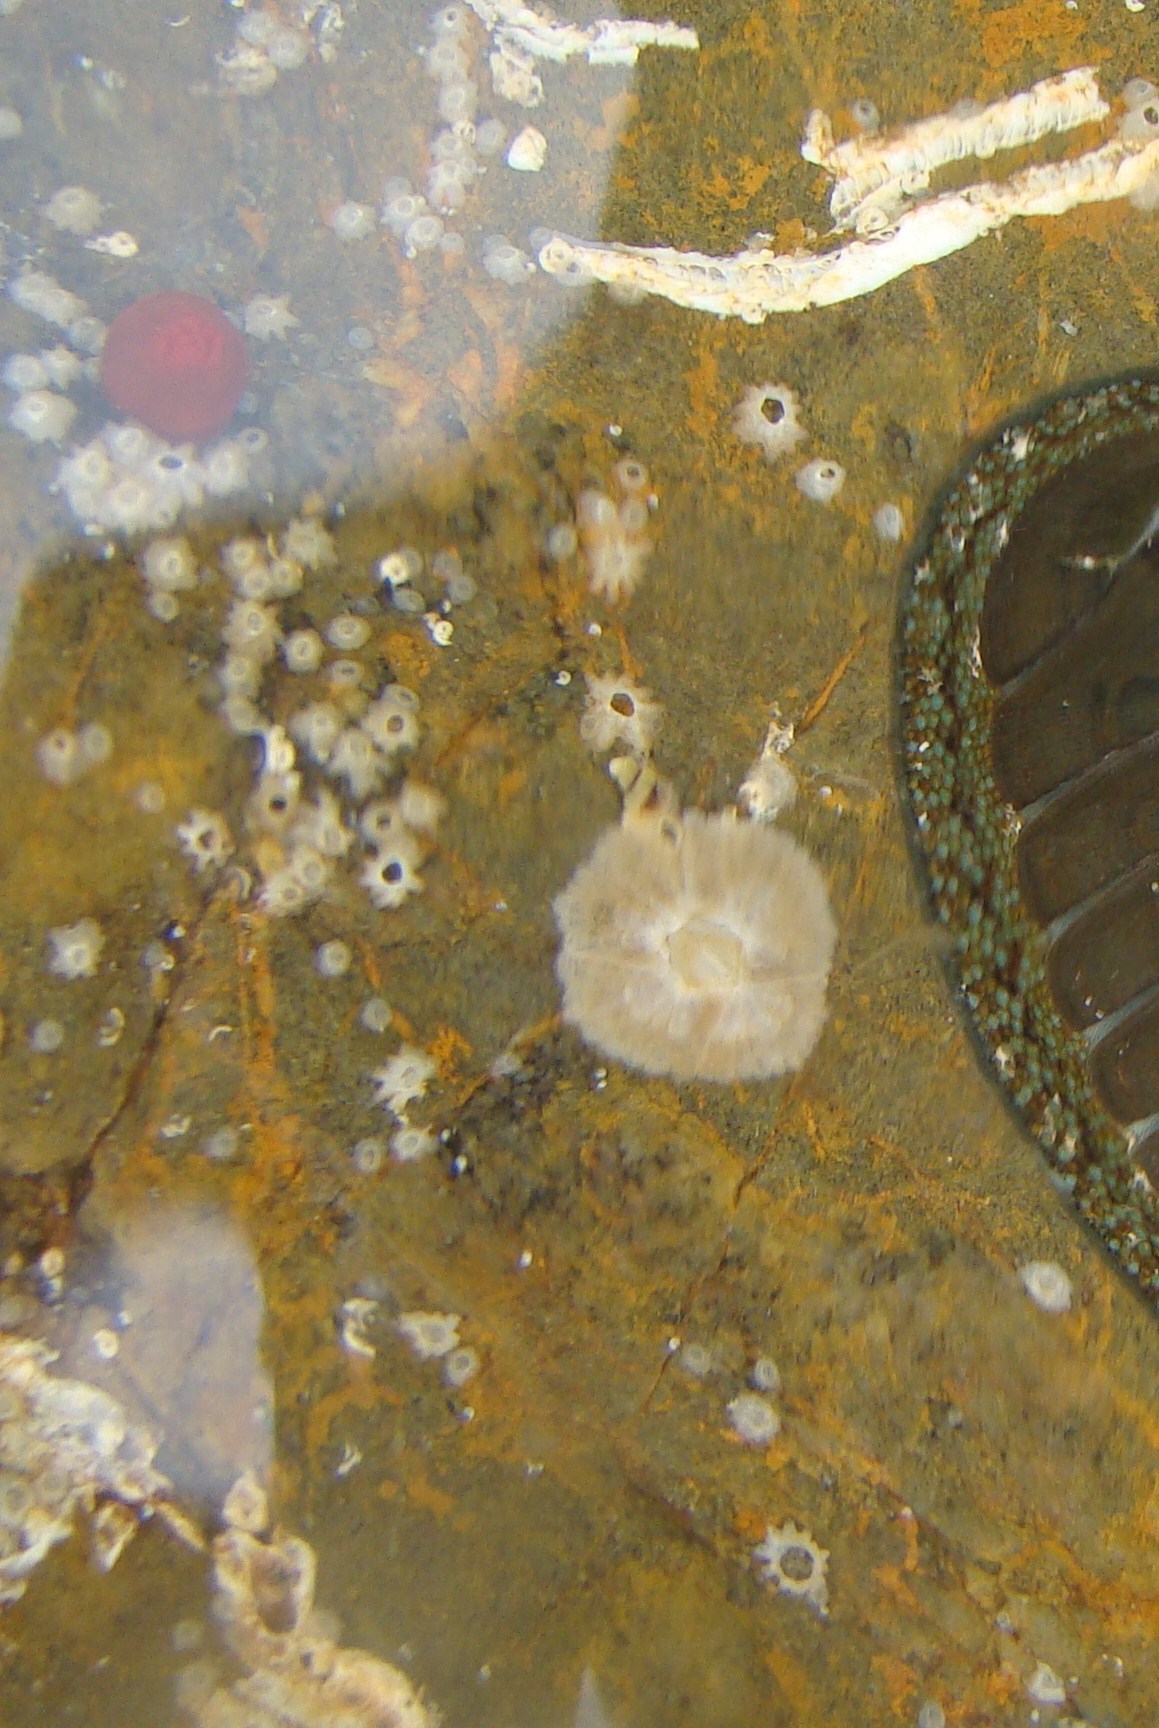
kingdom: Animalia
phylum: Arthropoda
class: Maxillopoda
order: Sessilia
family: Tetraclitidae
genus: Tetraclitella
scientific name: Tetraclitella depressa
